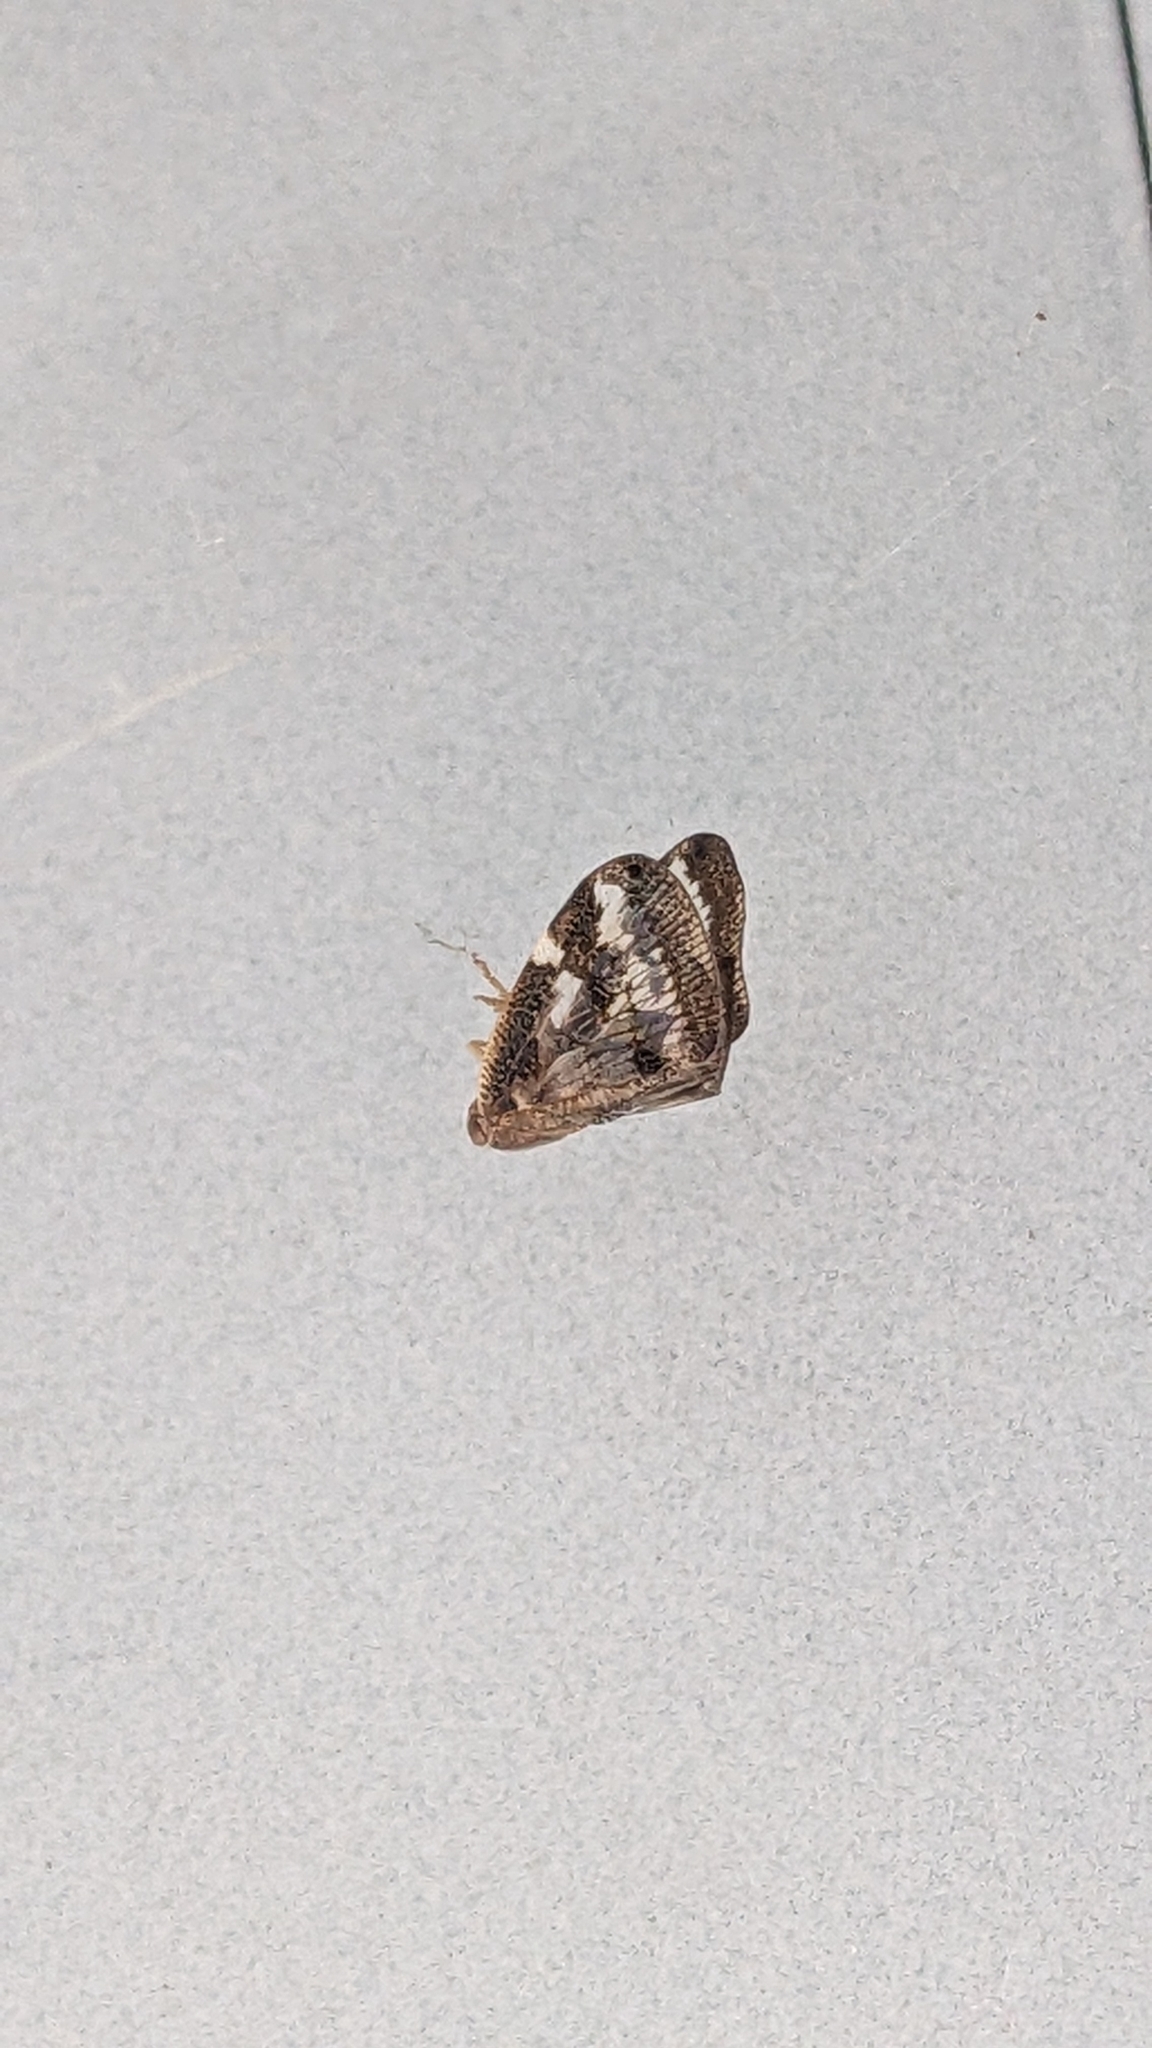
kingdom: Animalia
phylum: Arthropoda
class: Insecta
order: Hemiptera
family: Ricaniidae
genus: Scolypopa
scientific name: Scolypopa australis
